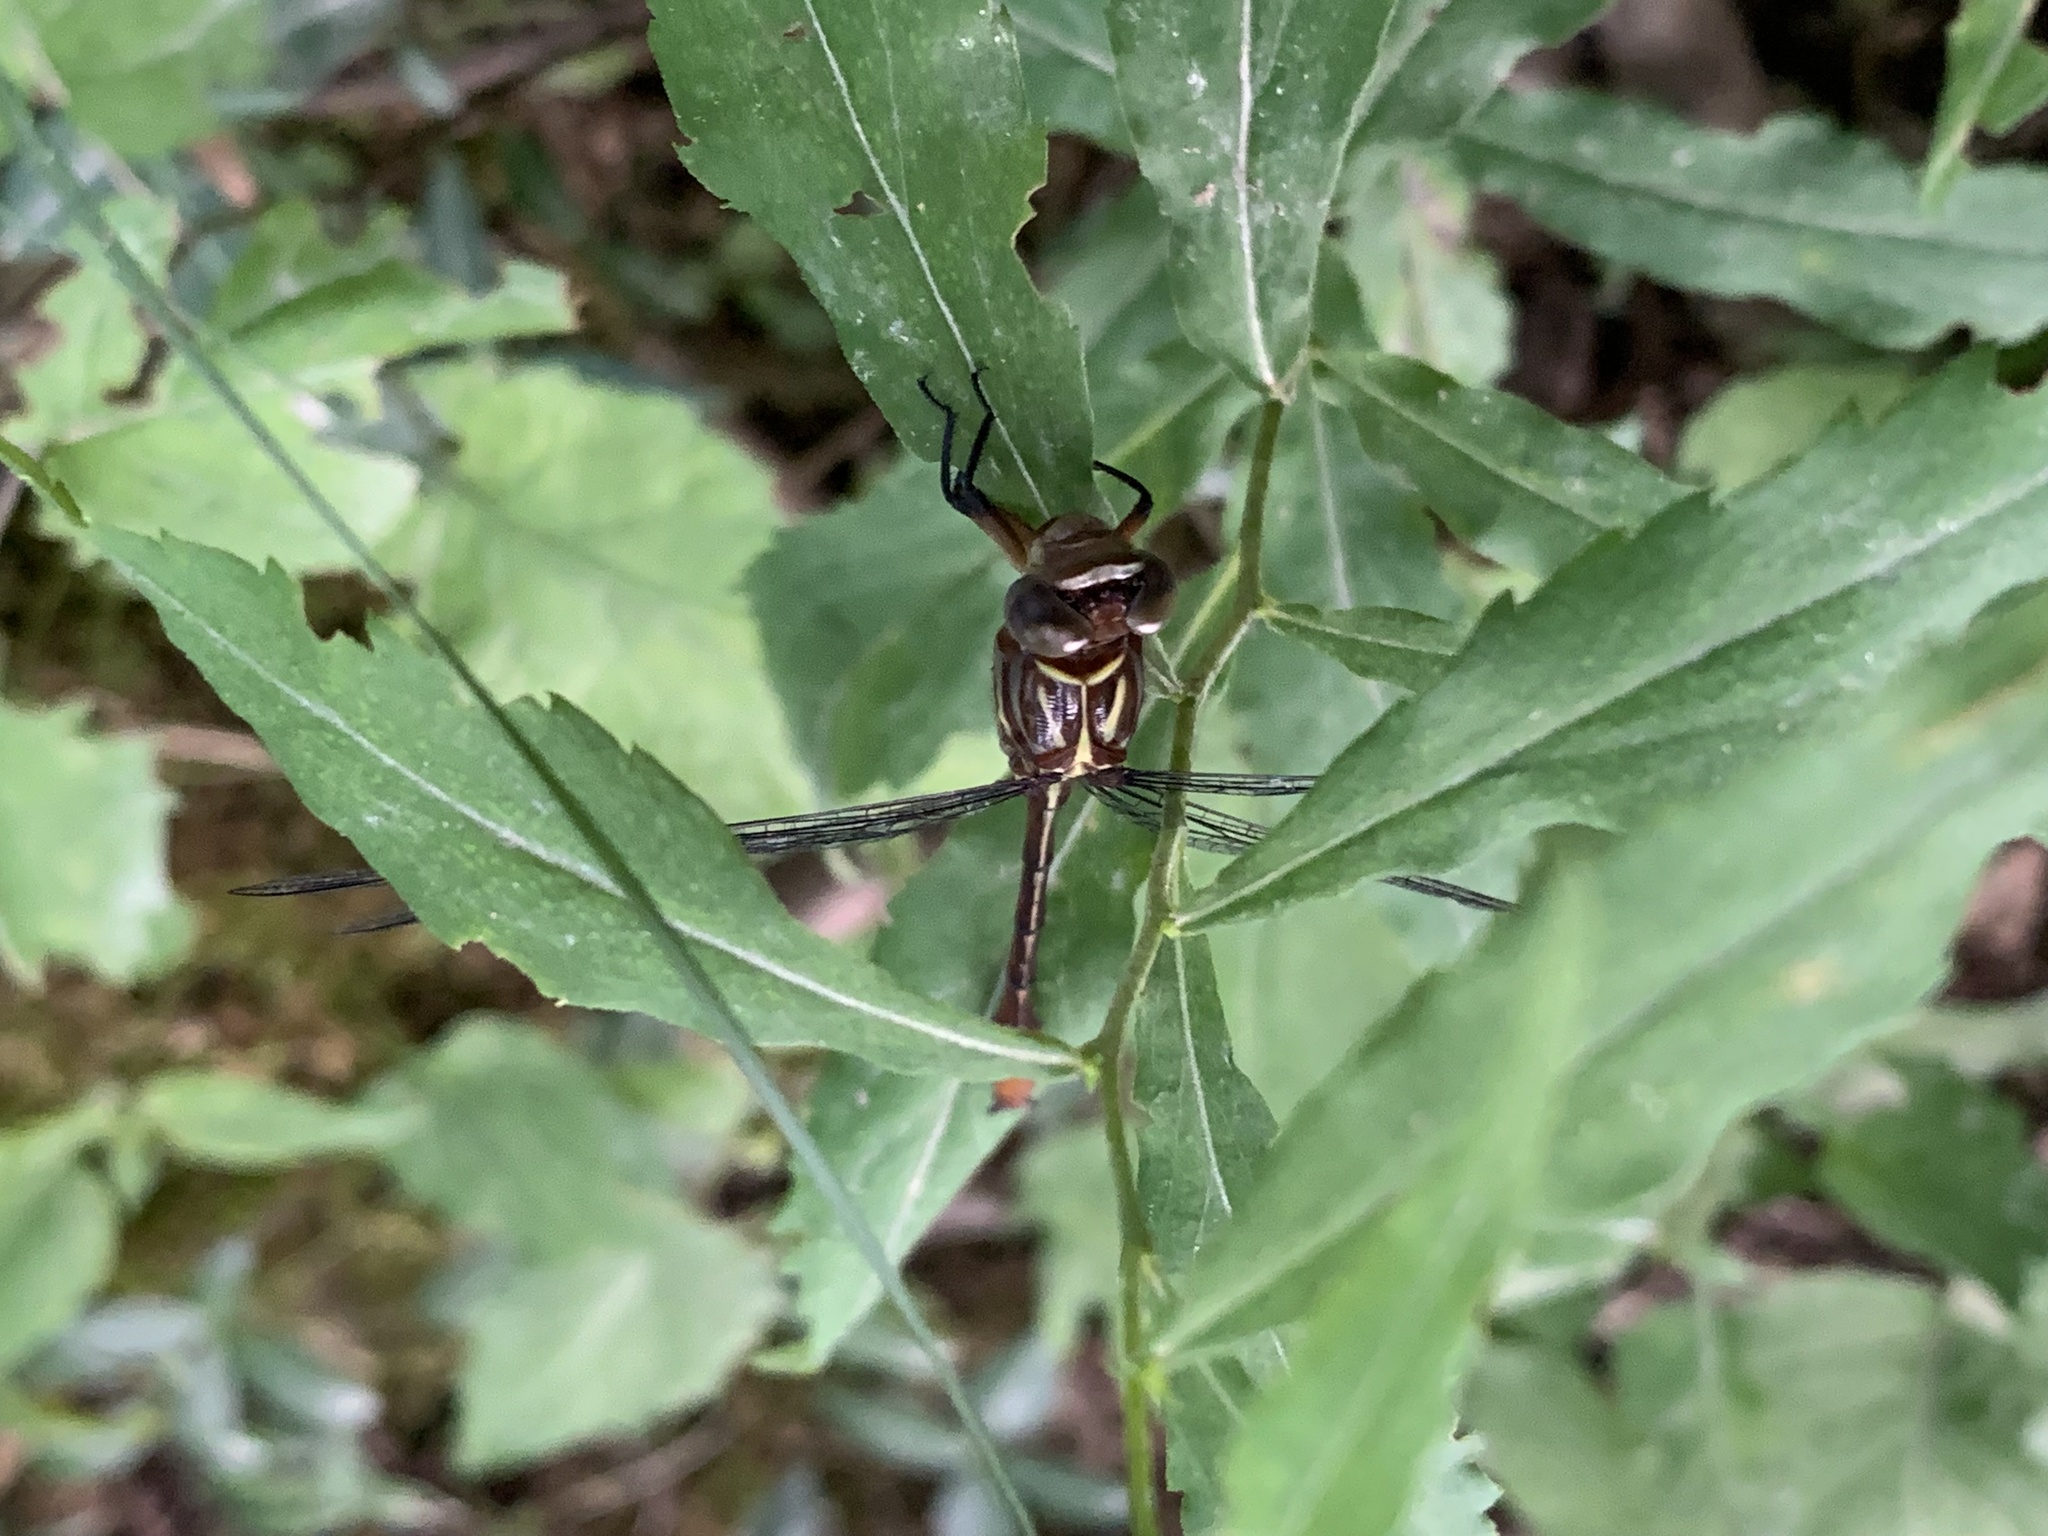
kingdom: Animalia
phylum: Arthropoda
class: Insecta
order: Odonata
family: Gomphidae
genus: Stylurus
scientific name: Stylurus plagiatus
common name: Russet-tipped clubtail
